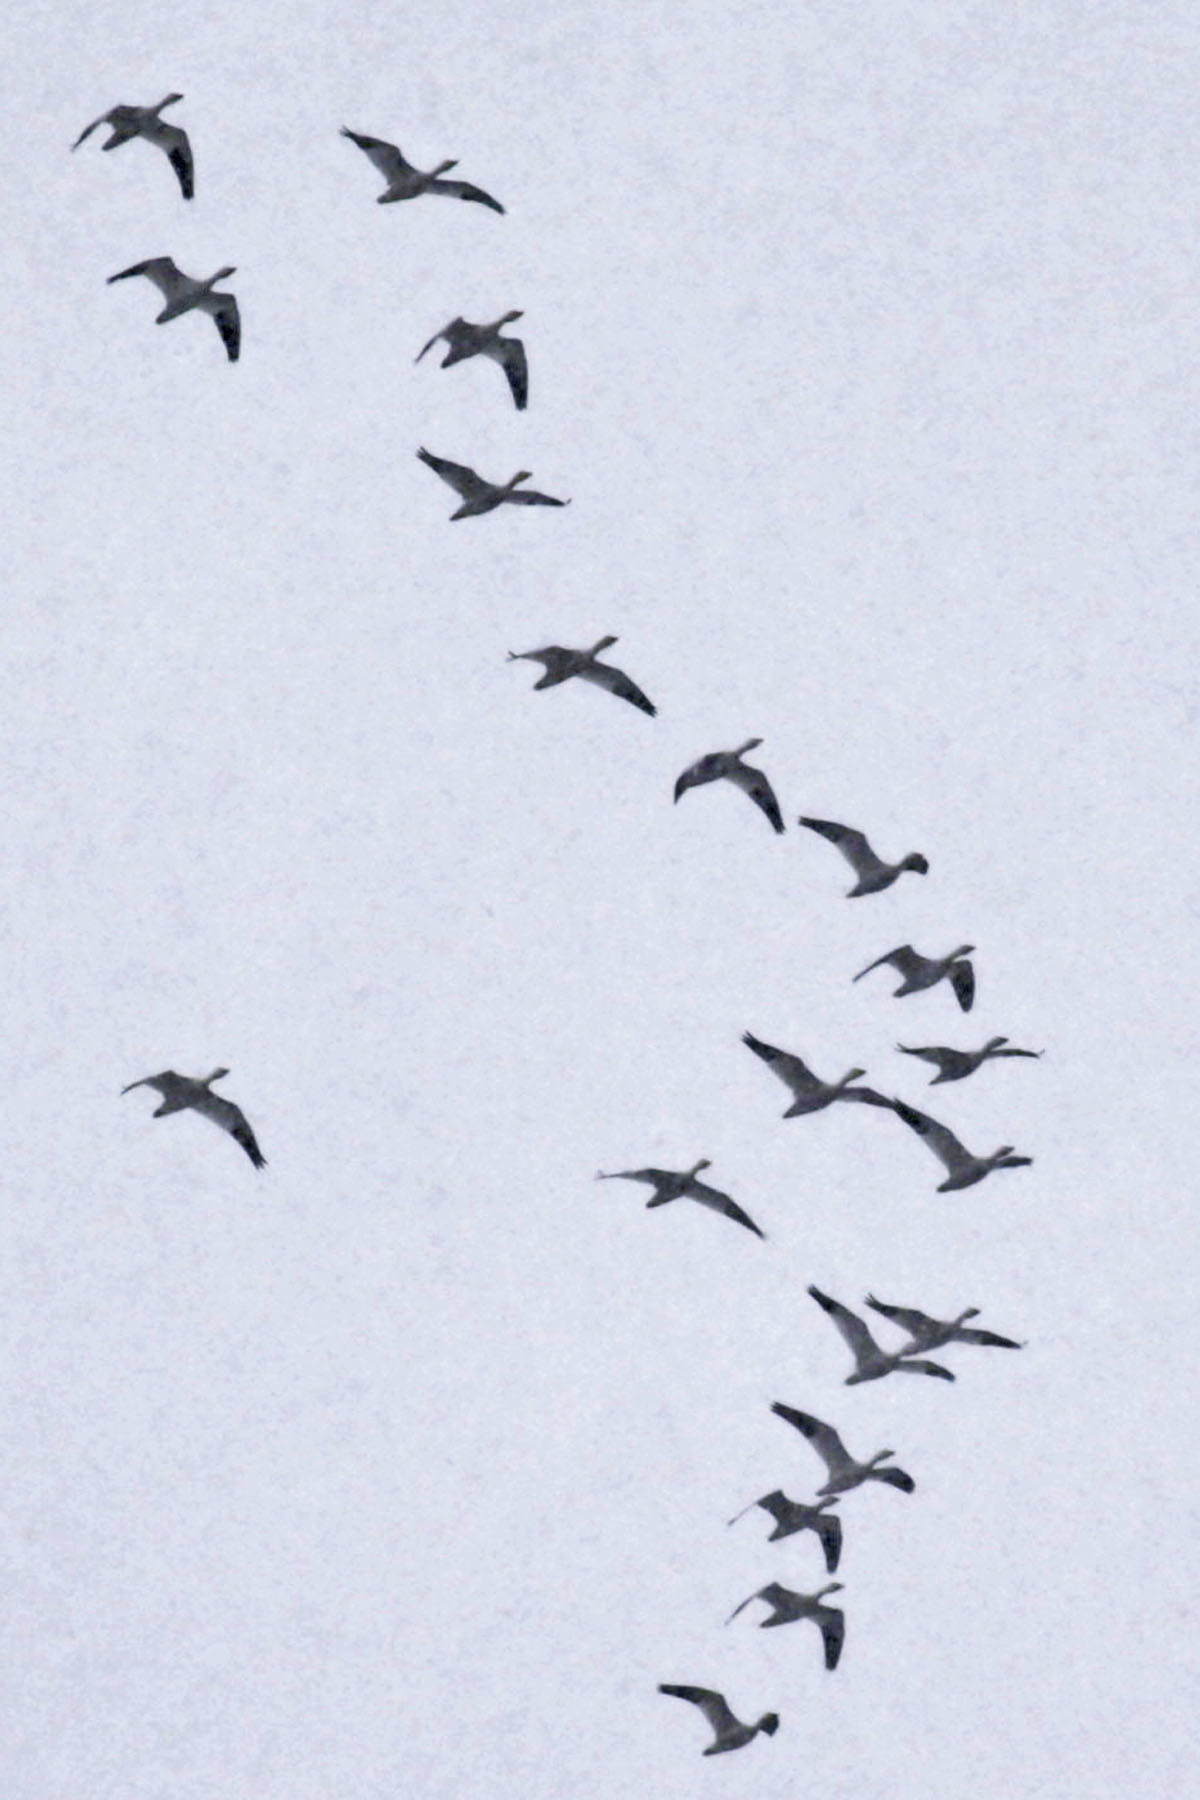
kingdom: Animalia
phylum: Chordata
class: Aves
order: Anseriformes
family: Anatidae
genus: Anser
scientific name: Anser caerulescens
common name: Snow goose
